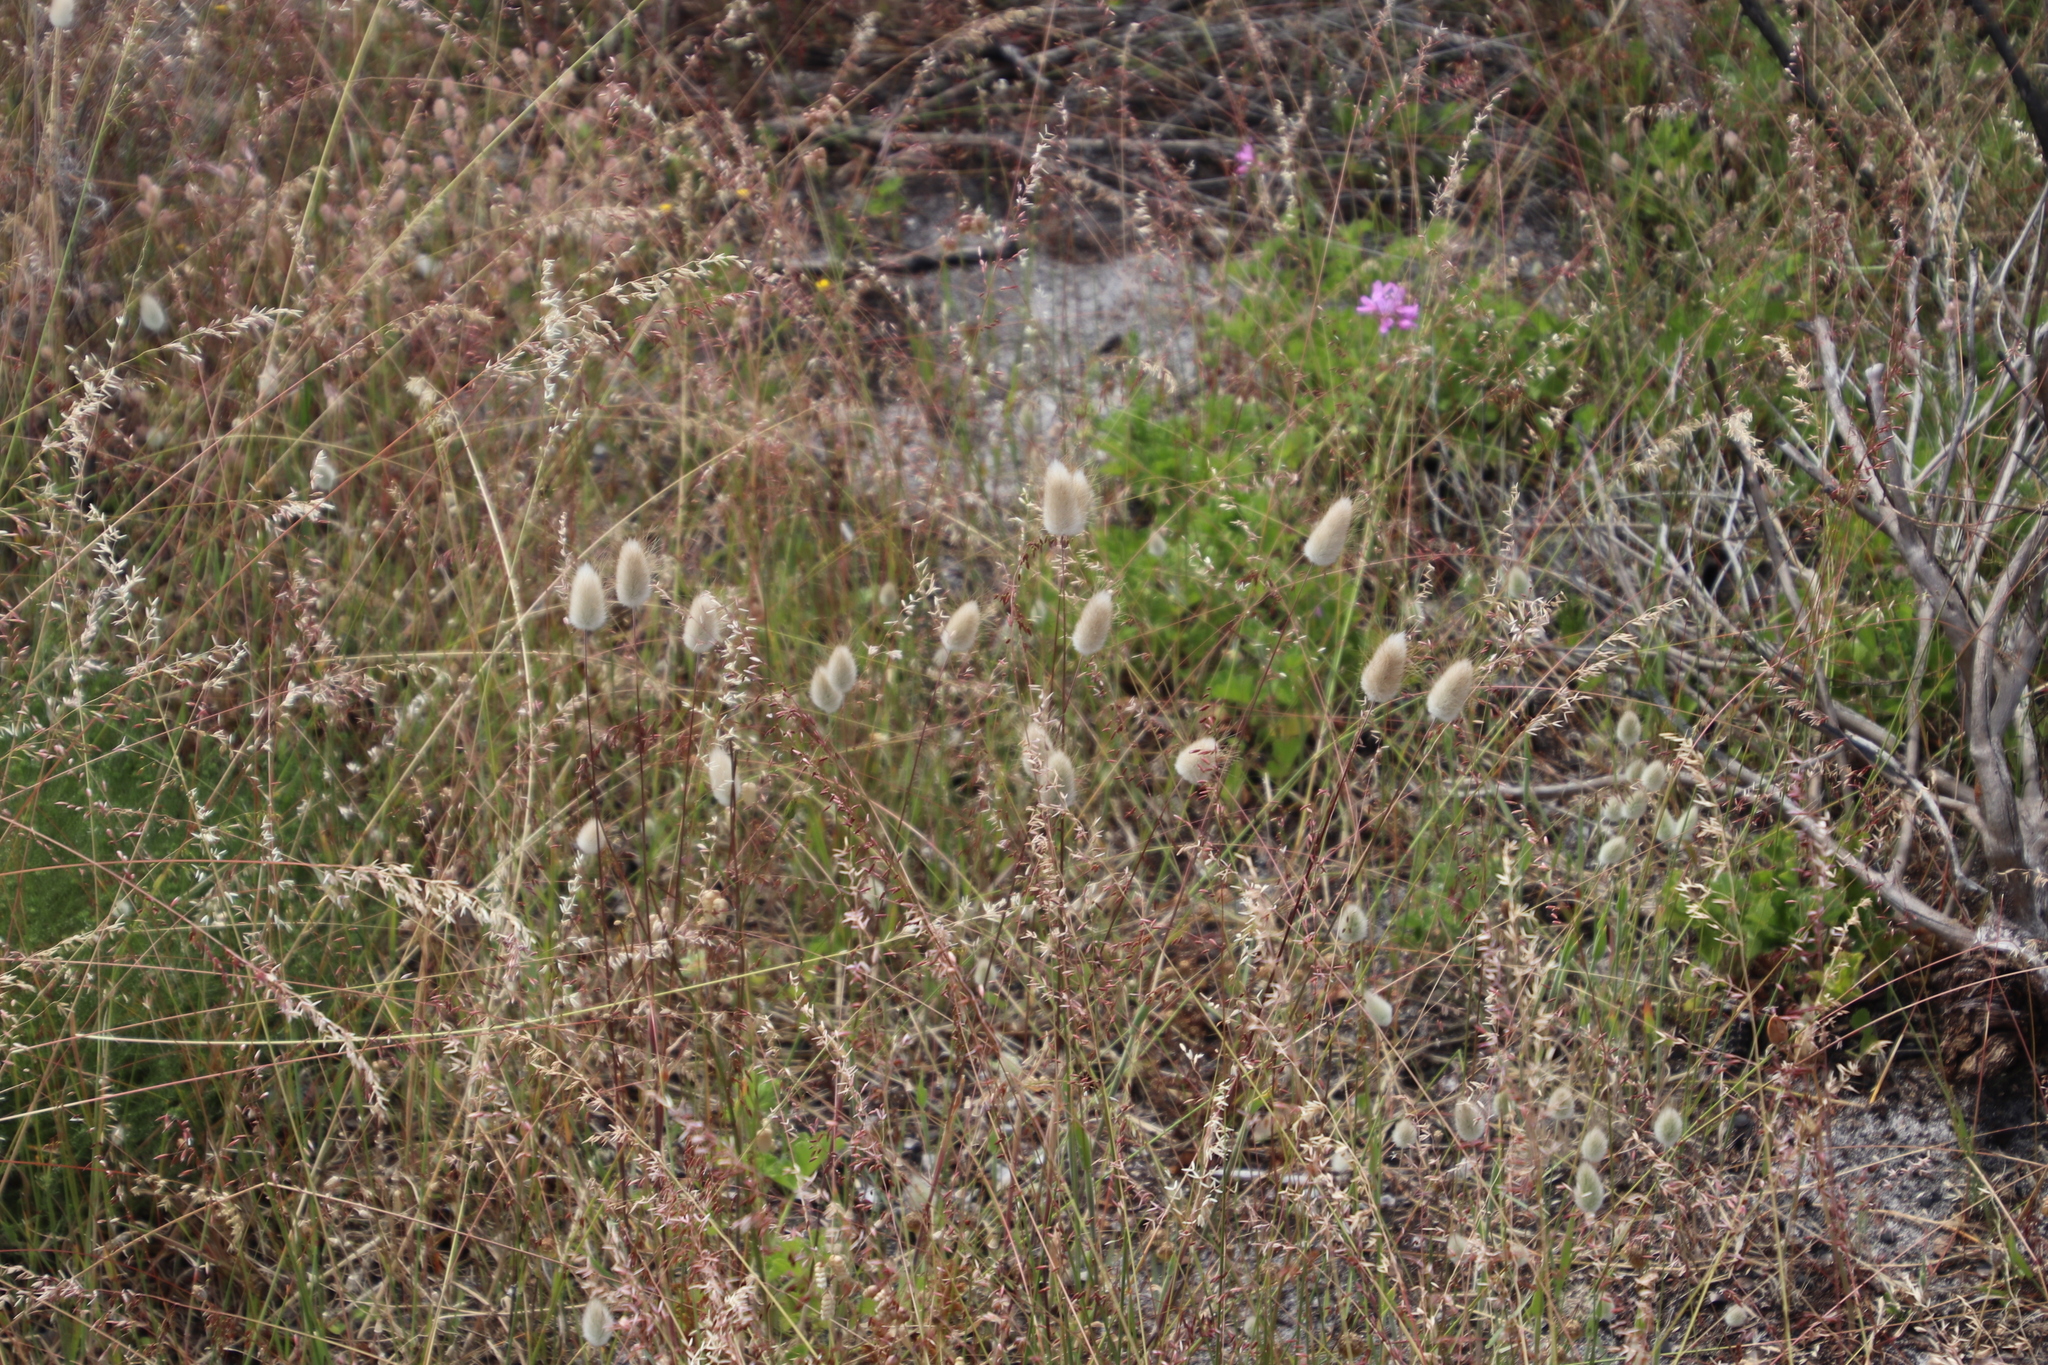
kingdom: Plantae
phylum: Tracheophyta
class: Liliopsida
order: Poales
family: Poaceae
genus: Lagurus
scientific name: Lagurus ovatus
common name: Hare's-tail
